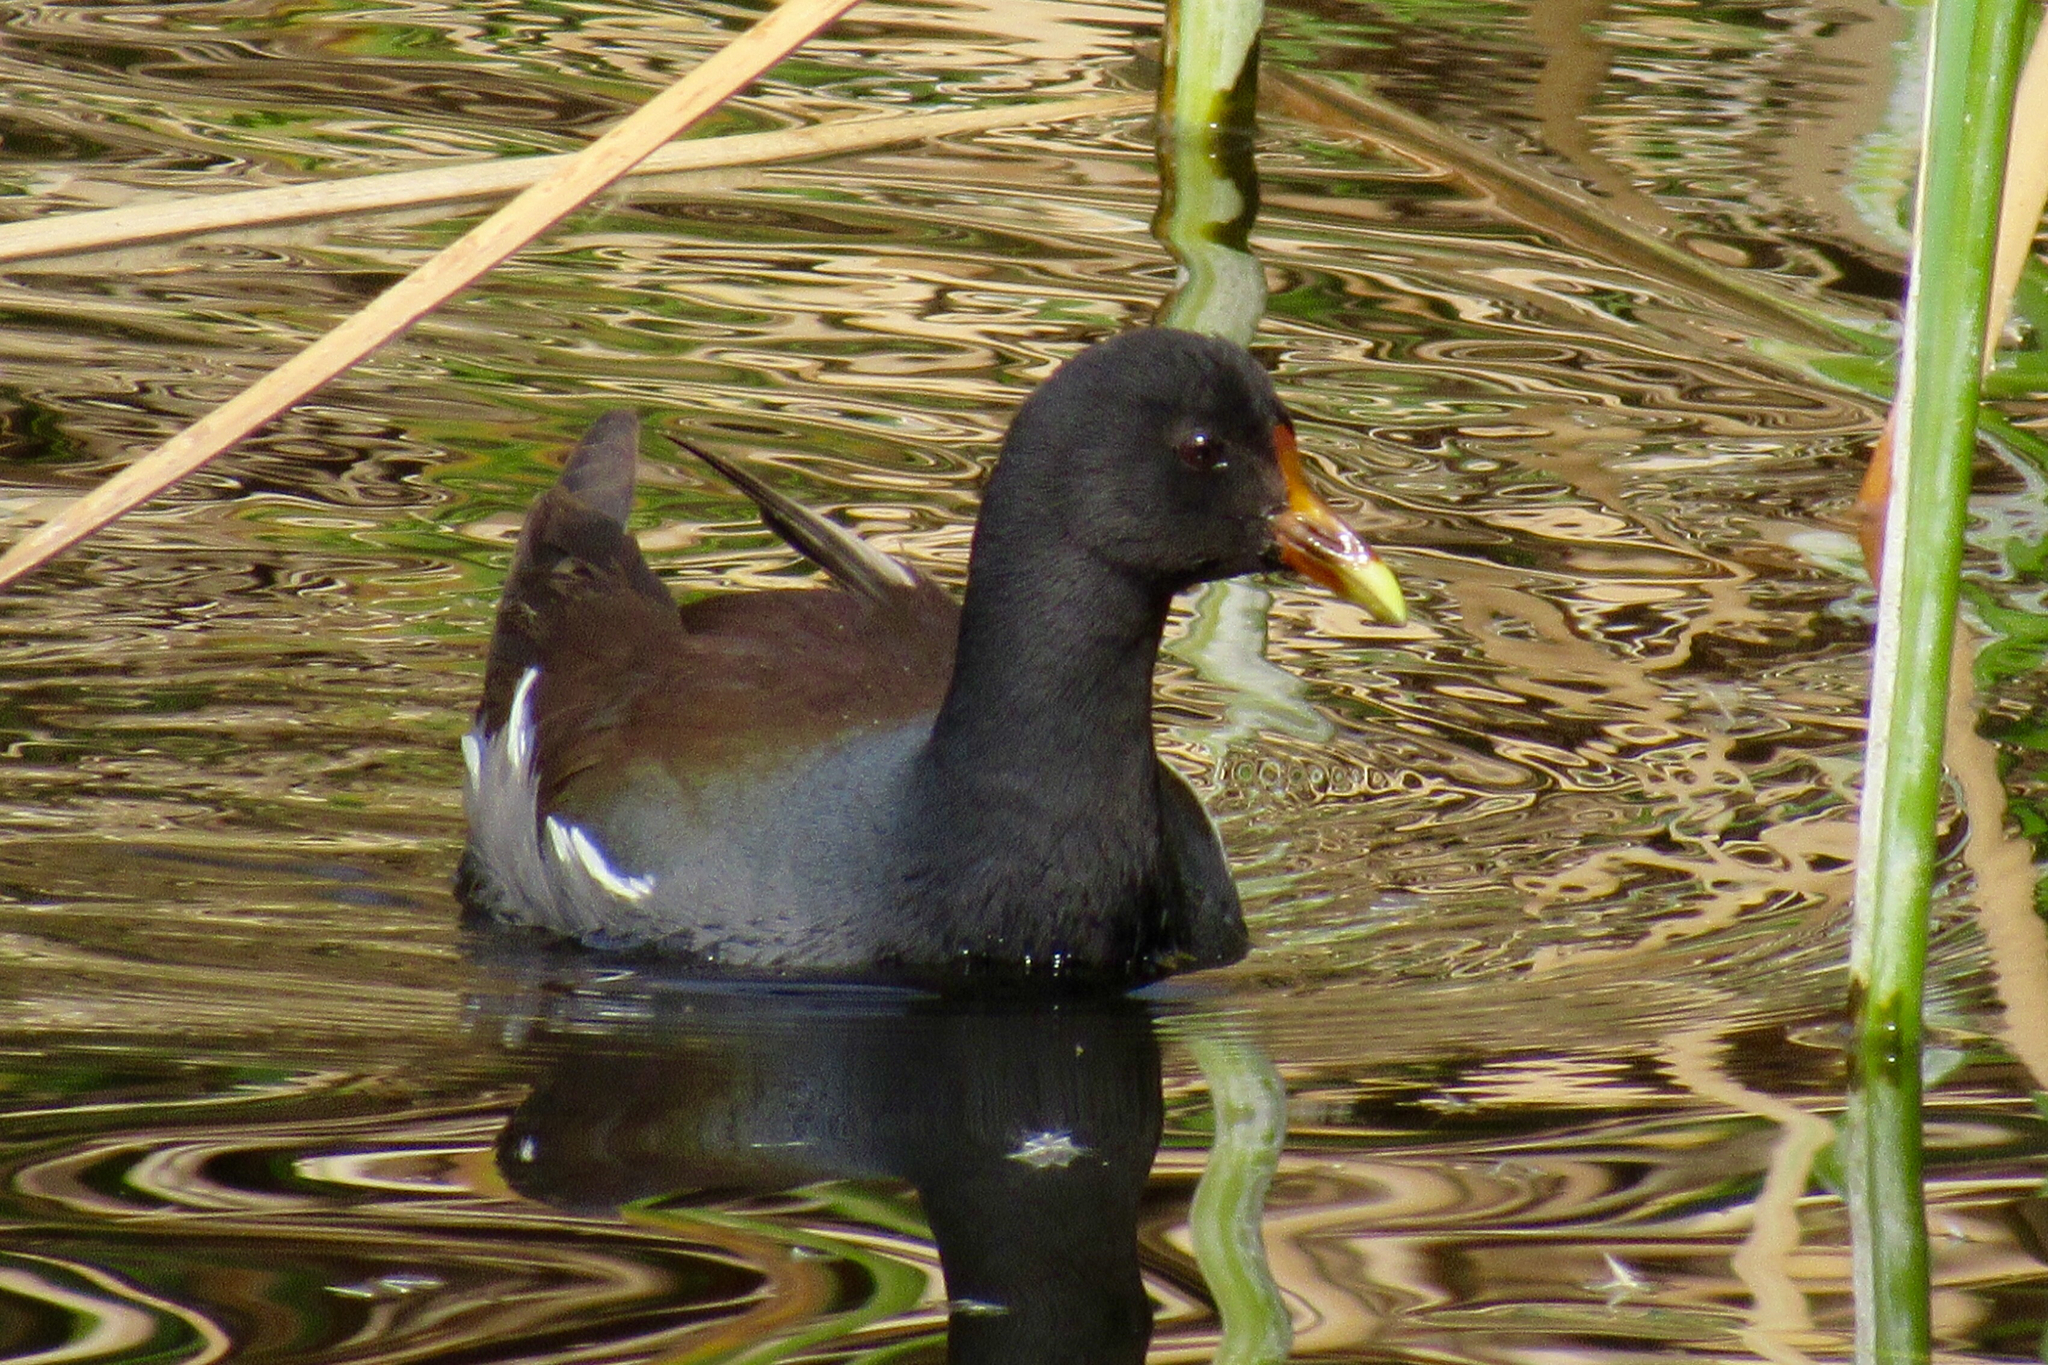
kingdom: Animalia
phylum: Chordata
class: Aves
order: Gruiformes
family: Rallidae
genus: Gallinula
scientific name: Gallinula chloropus
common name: Common moorhen
